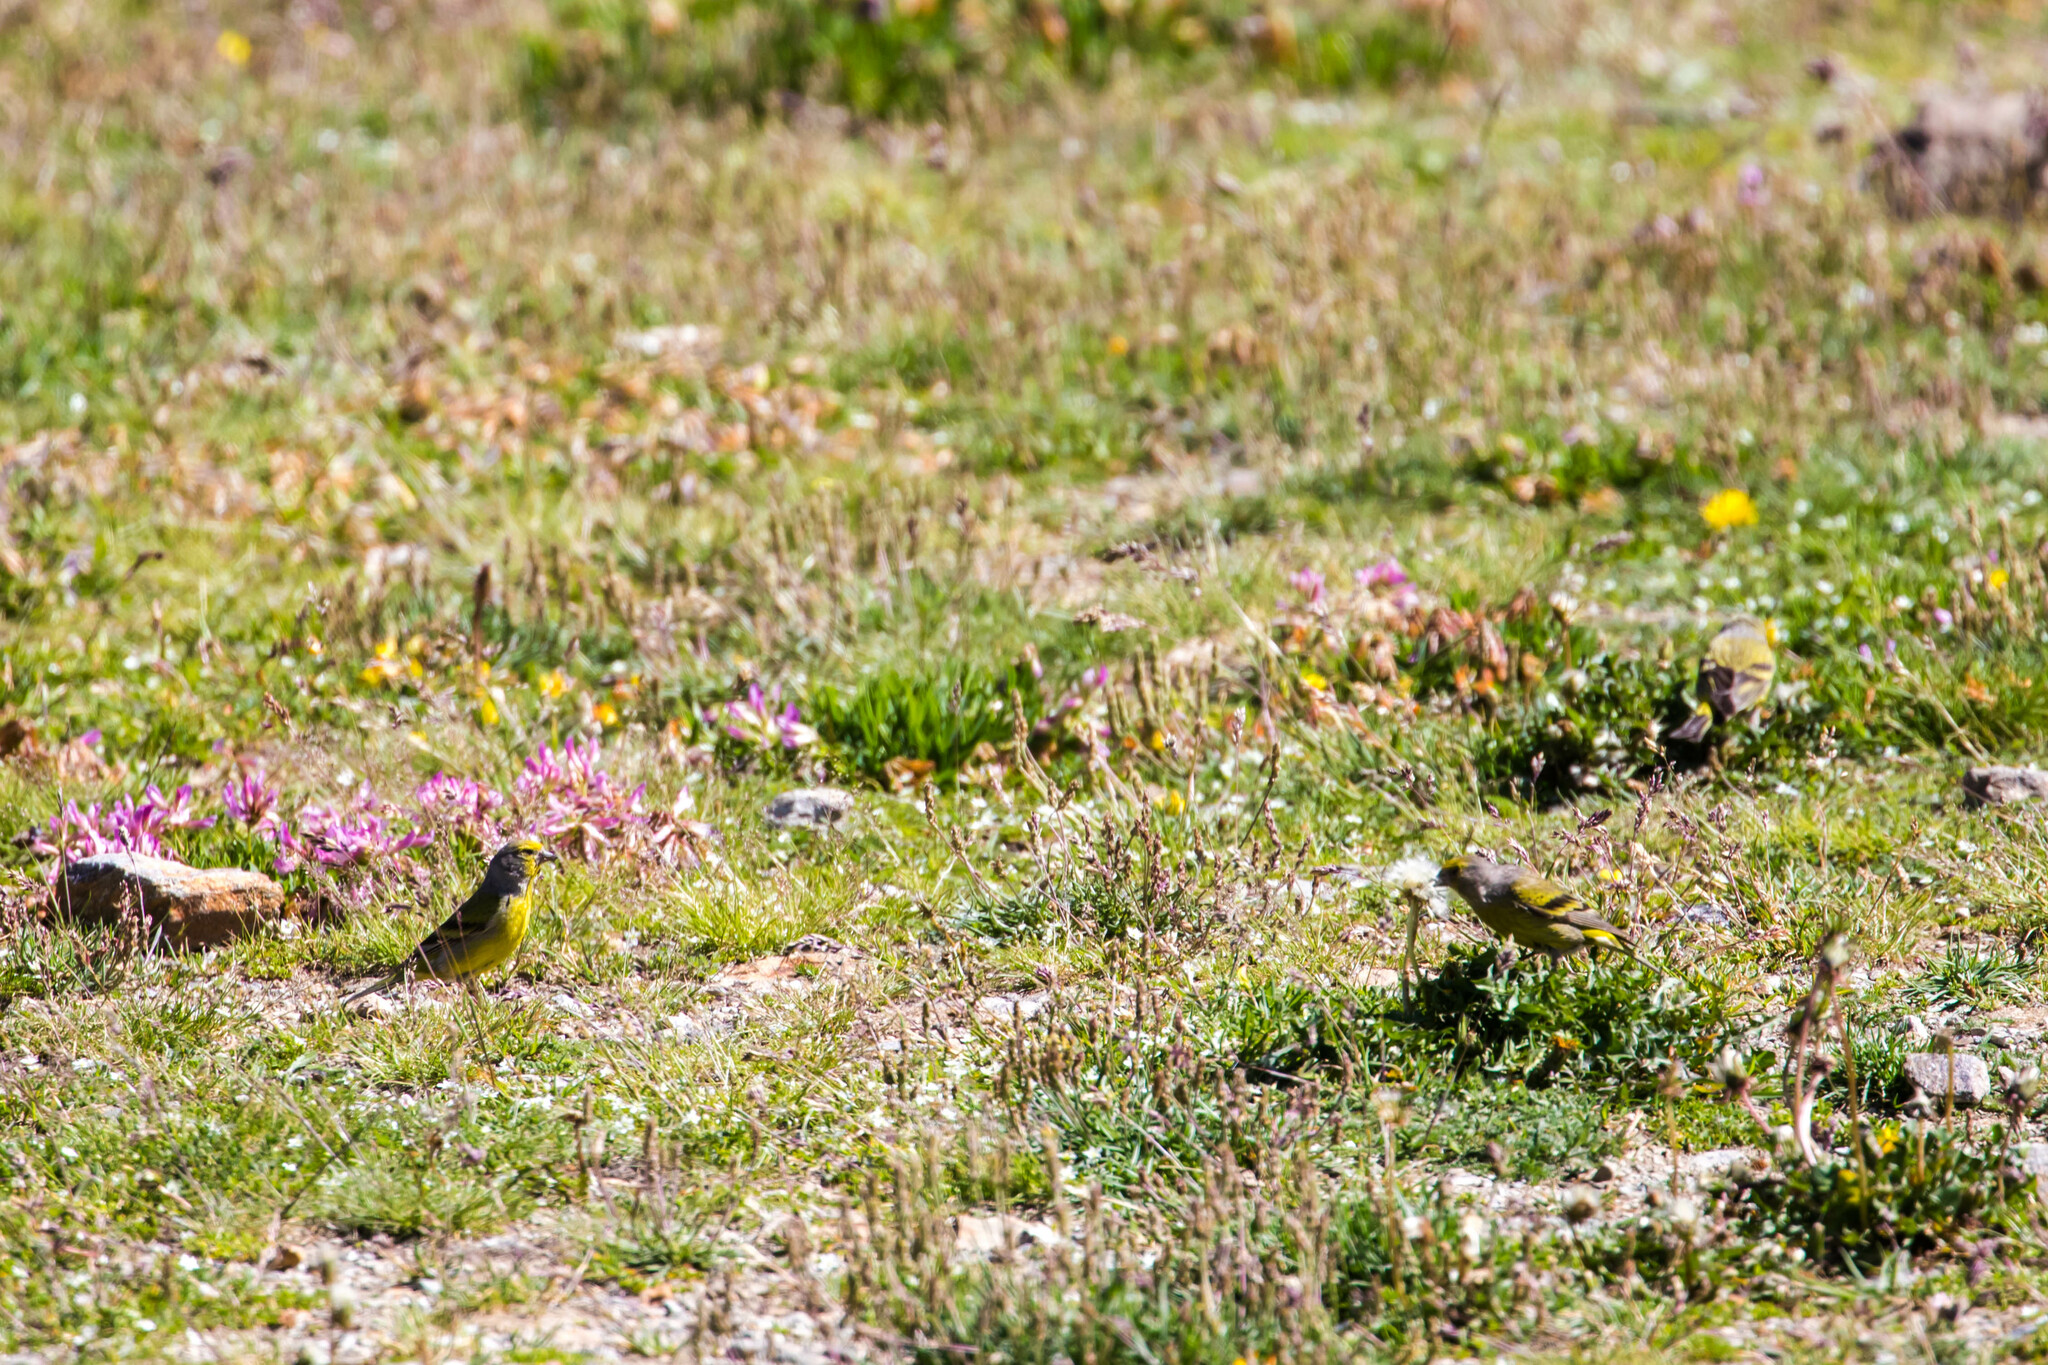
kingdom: Animalia
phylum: Chordata
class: Aves
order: Passeriformes
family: Fringillidae
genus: Carduelis
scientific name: Carduelis citrinella
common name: Citril finch
